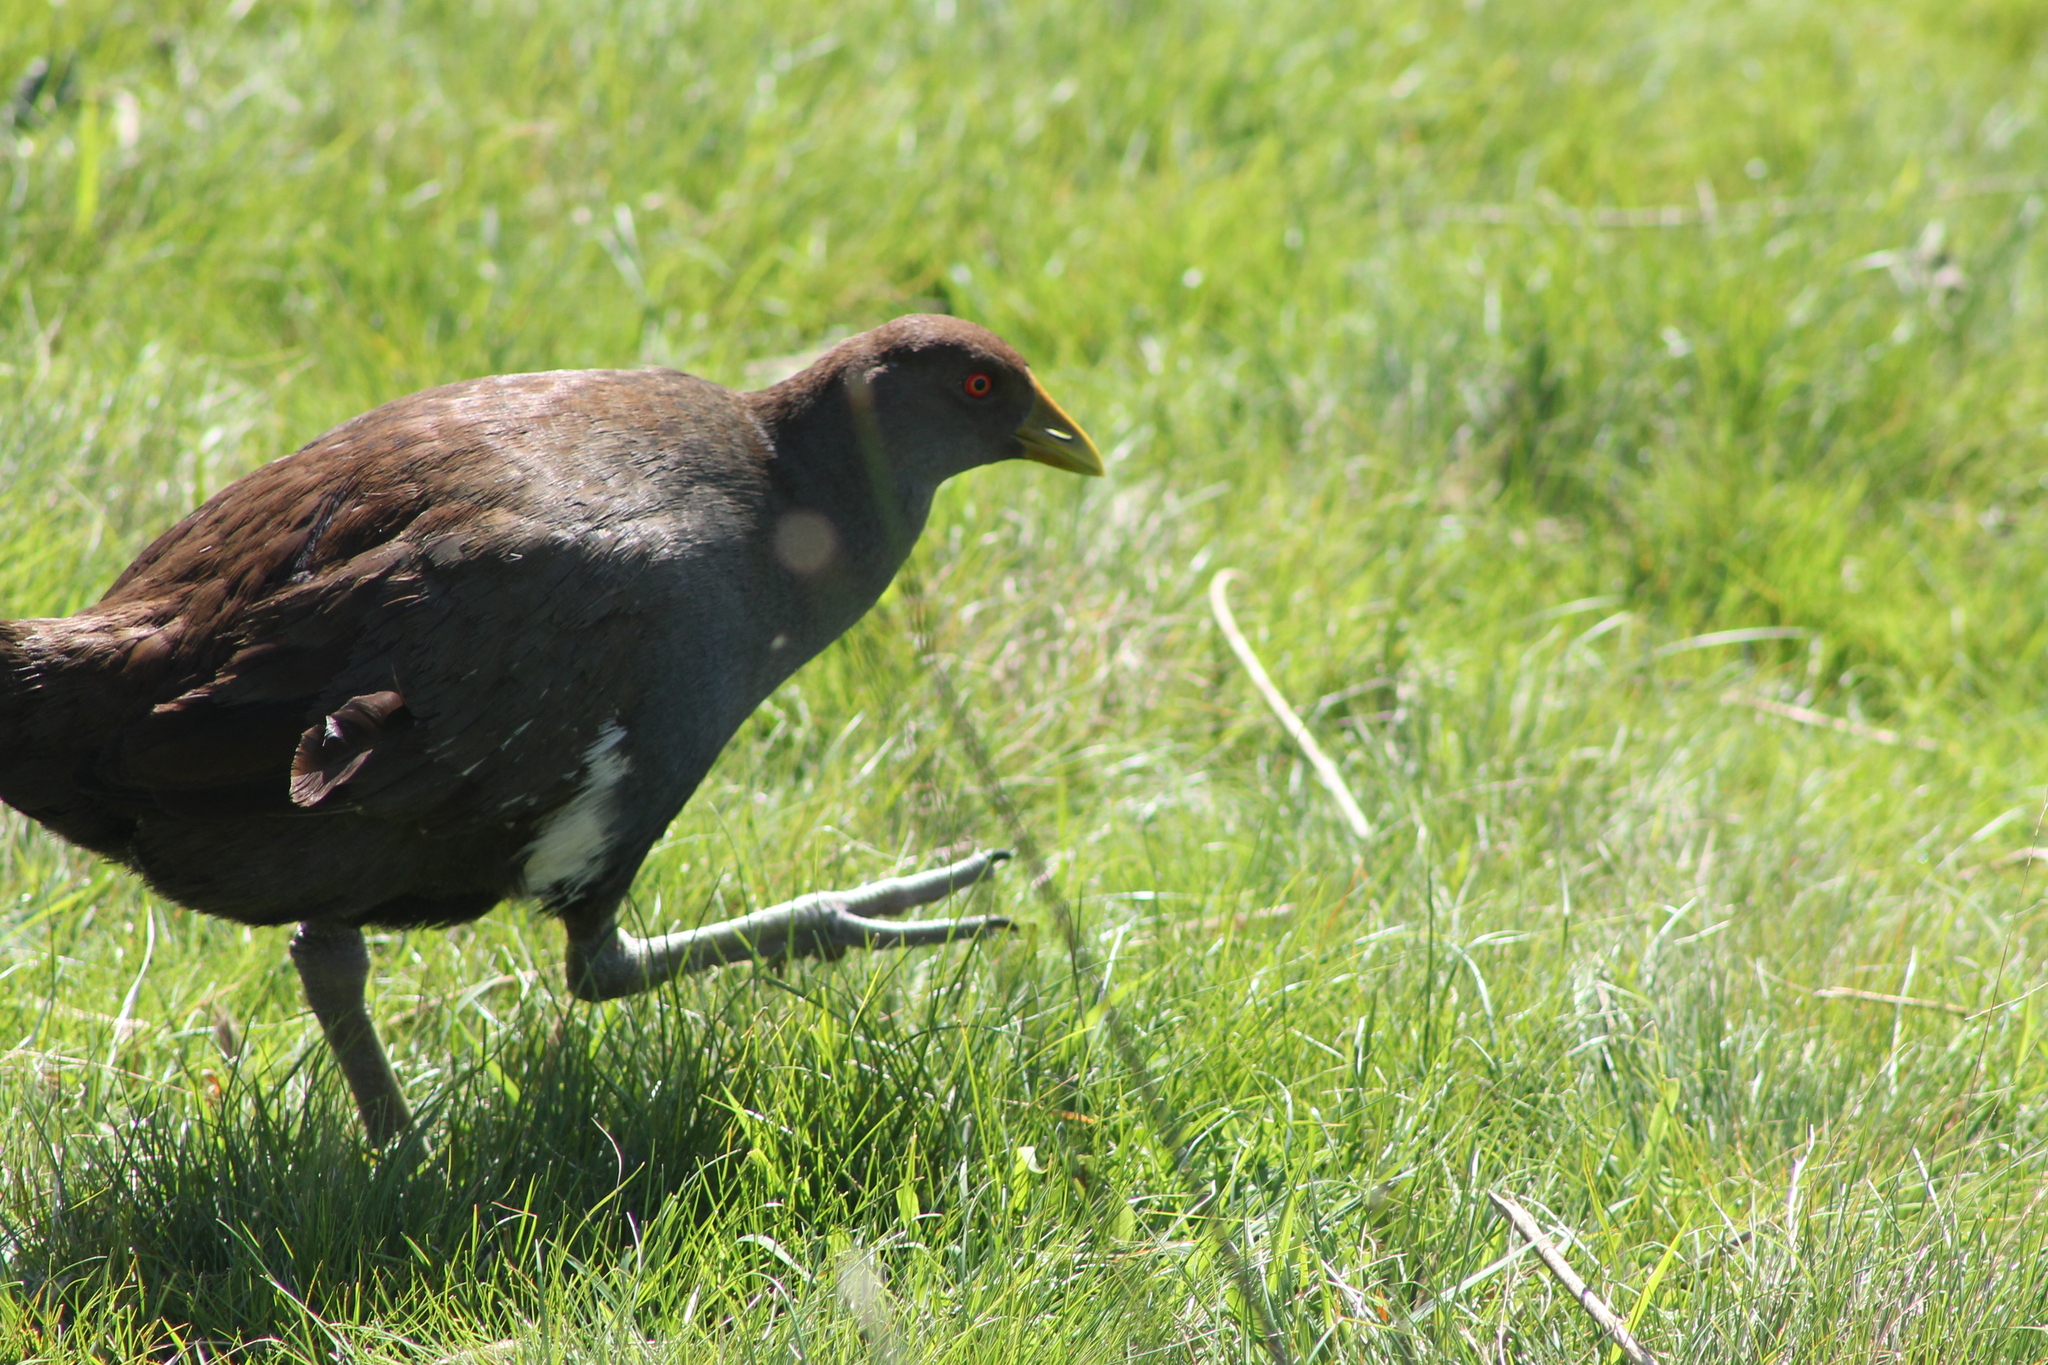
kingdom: Animalia
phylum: Chordata
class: Aves
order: Gruiformes
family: Rallidae
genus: Gallinula
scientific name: Gallinula mortierii
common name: Tasmanian nativehen
